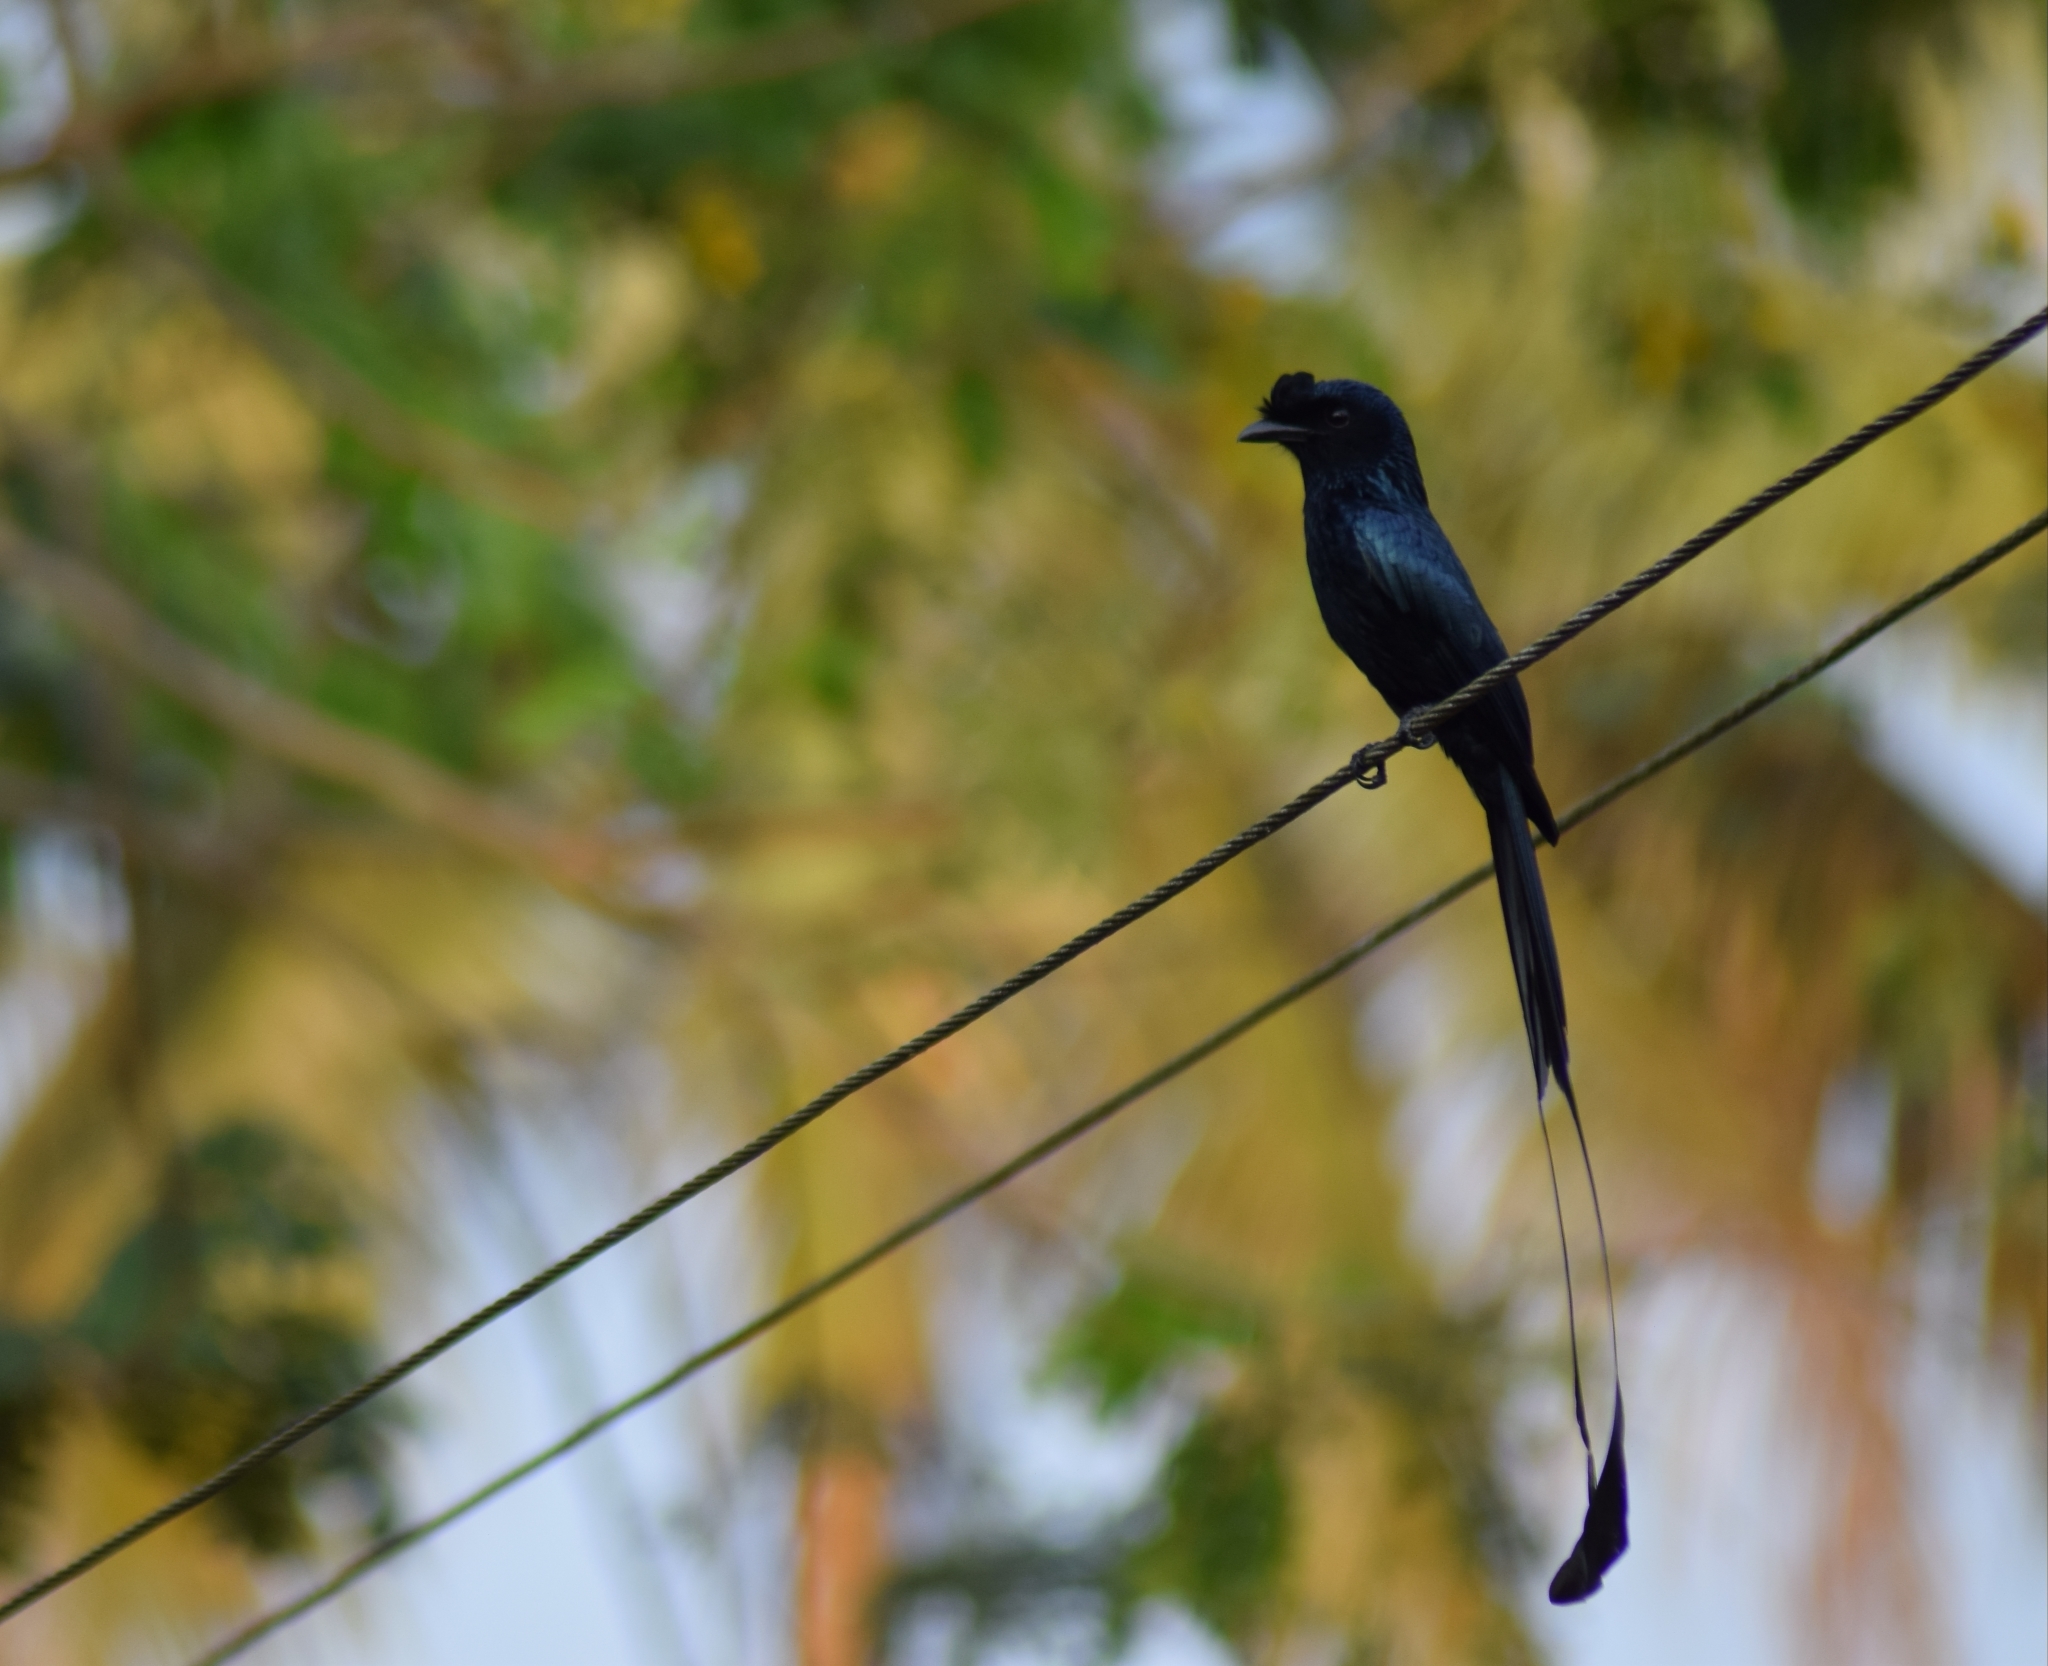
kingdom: Animalia
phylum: Chordata
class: Aves
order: Passeriformes
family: Dicruridae
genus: Dicrurus
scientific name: Dicrurus paradiseus
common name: Greater racket-tailed drongo
